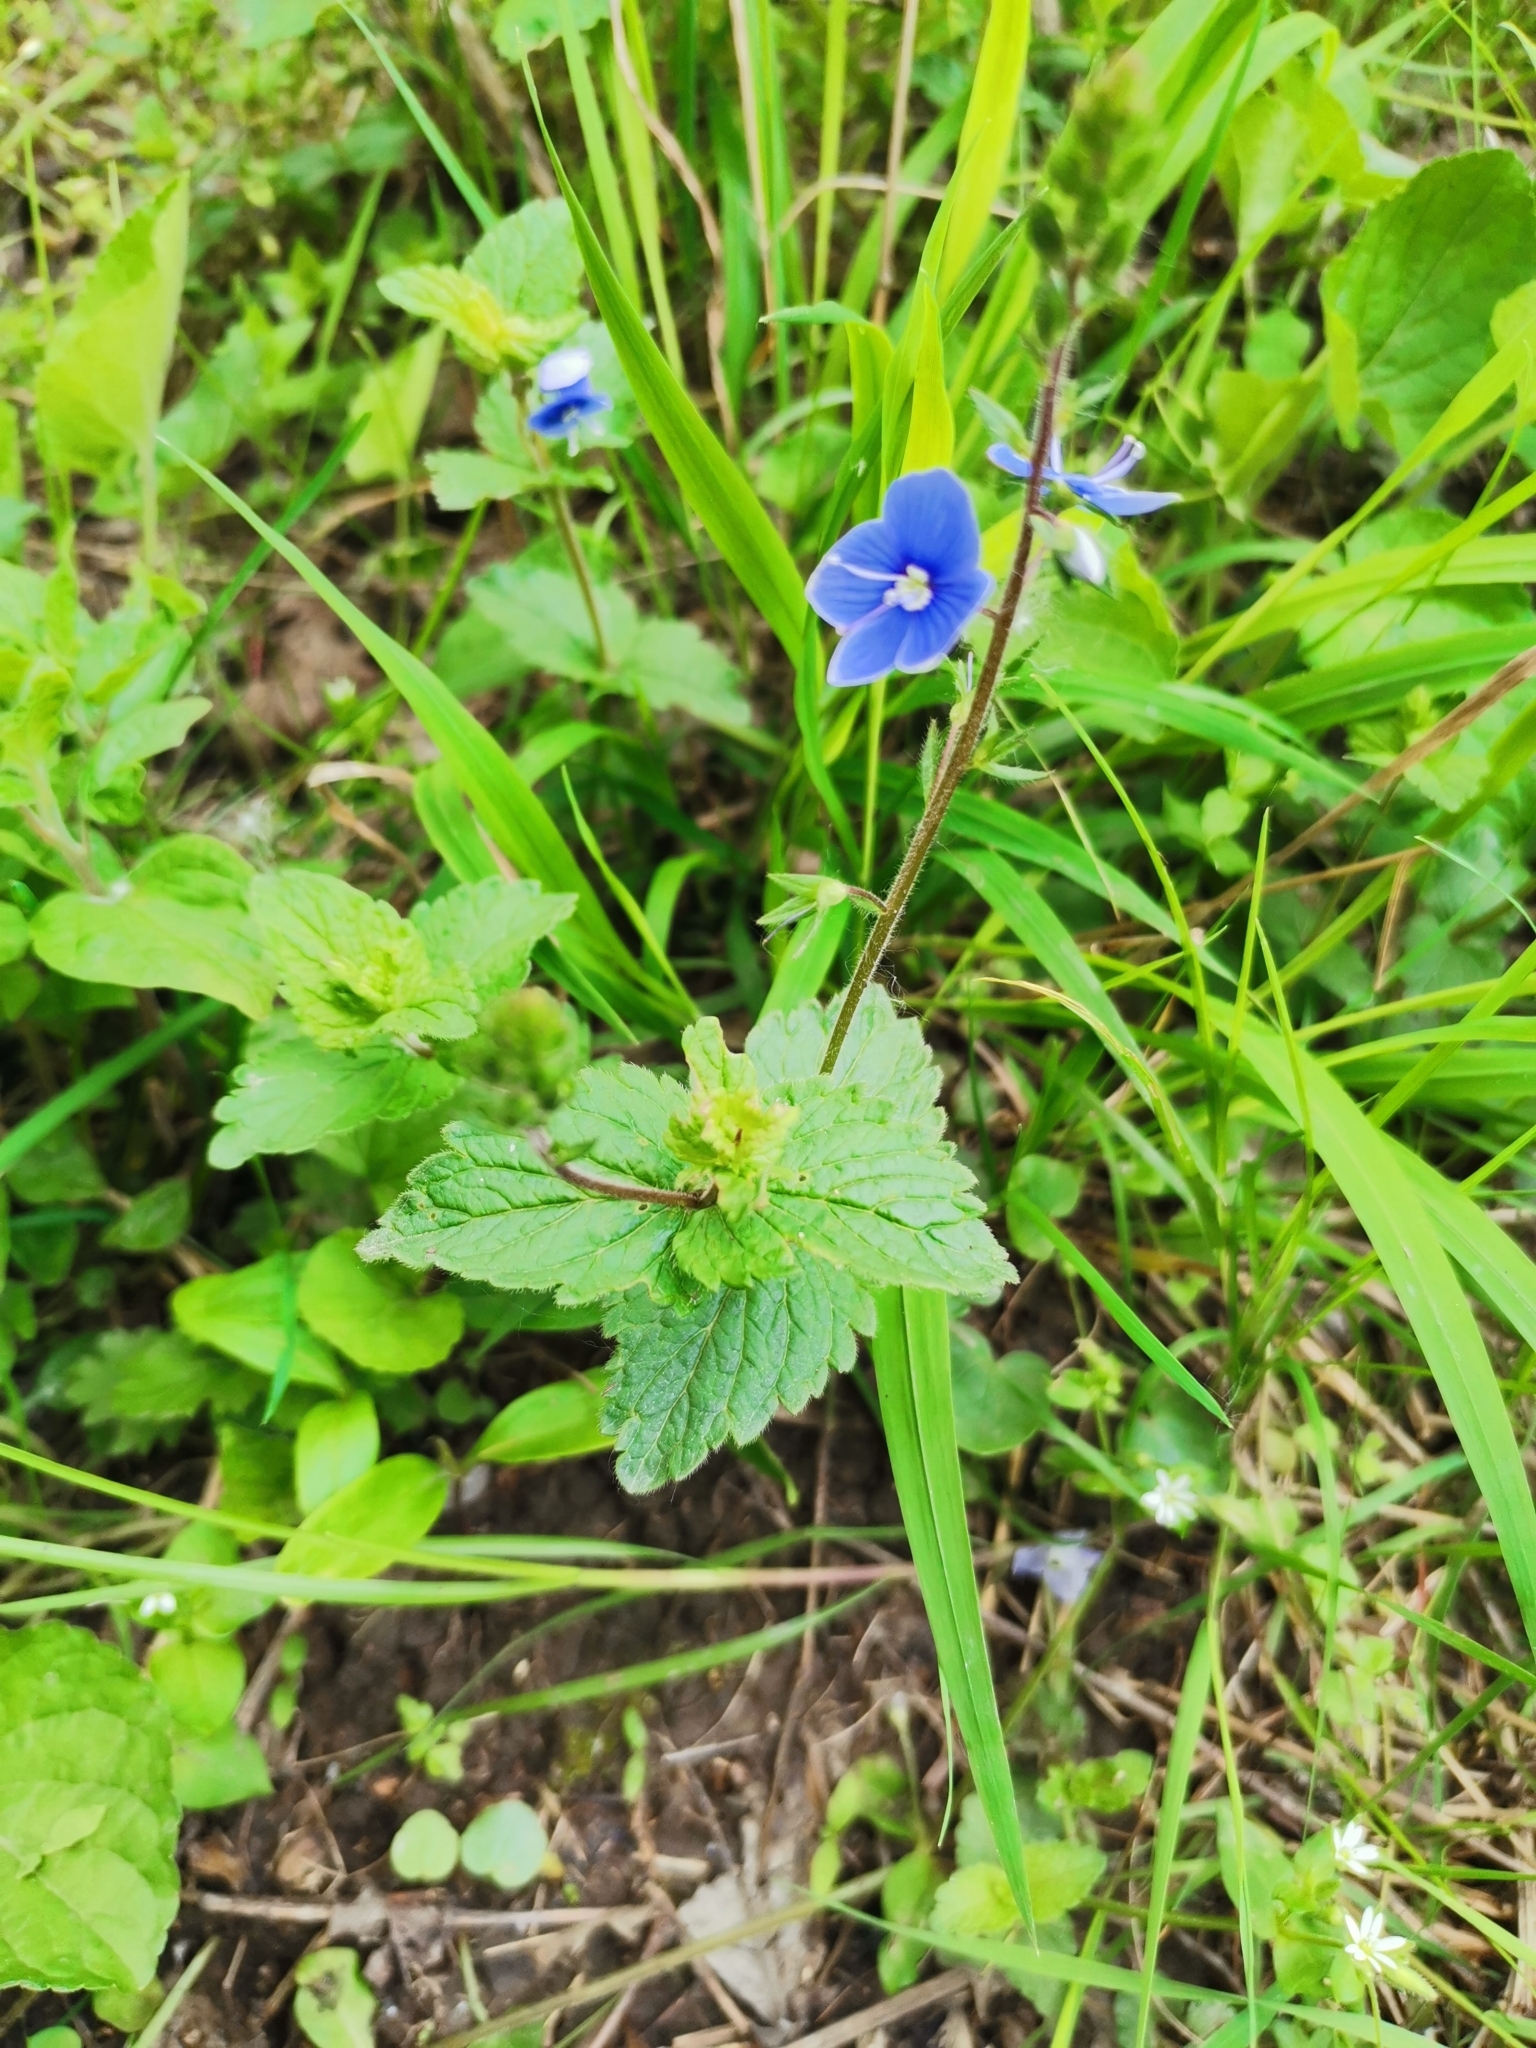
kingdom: Plantae
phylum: Tracheophyta
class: Magnoliopsida
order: Lamiales
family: Plantaginaceae
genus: Veronica
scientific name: Veronica chamaedrys
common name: Germander speedwell
